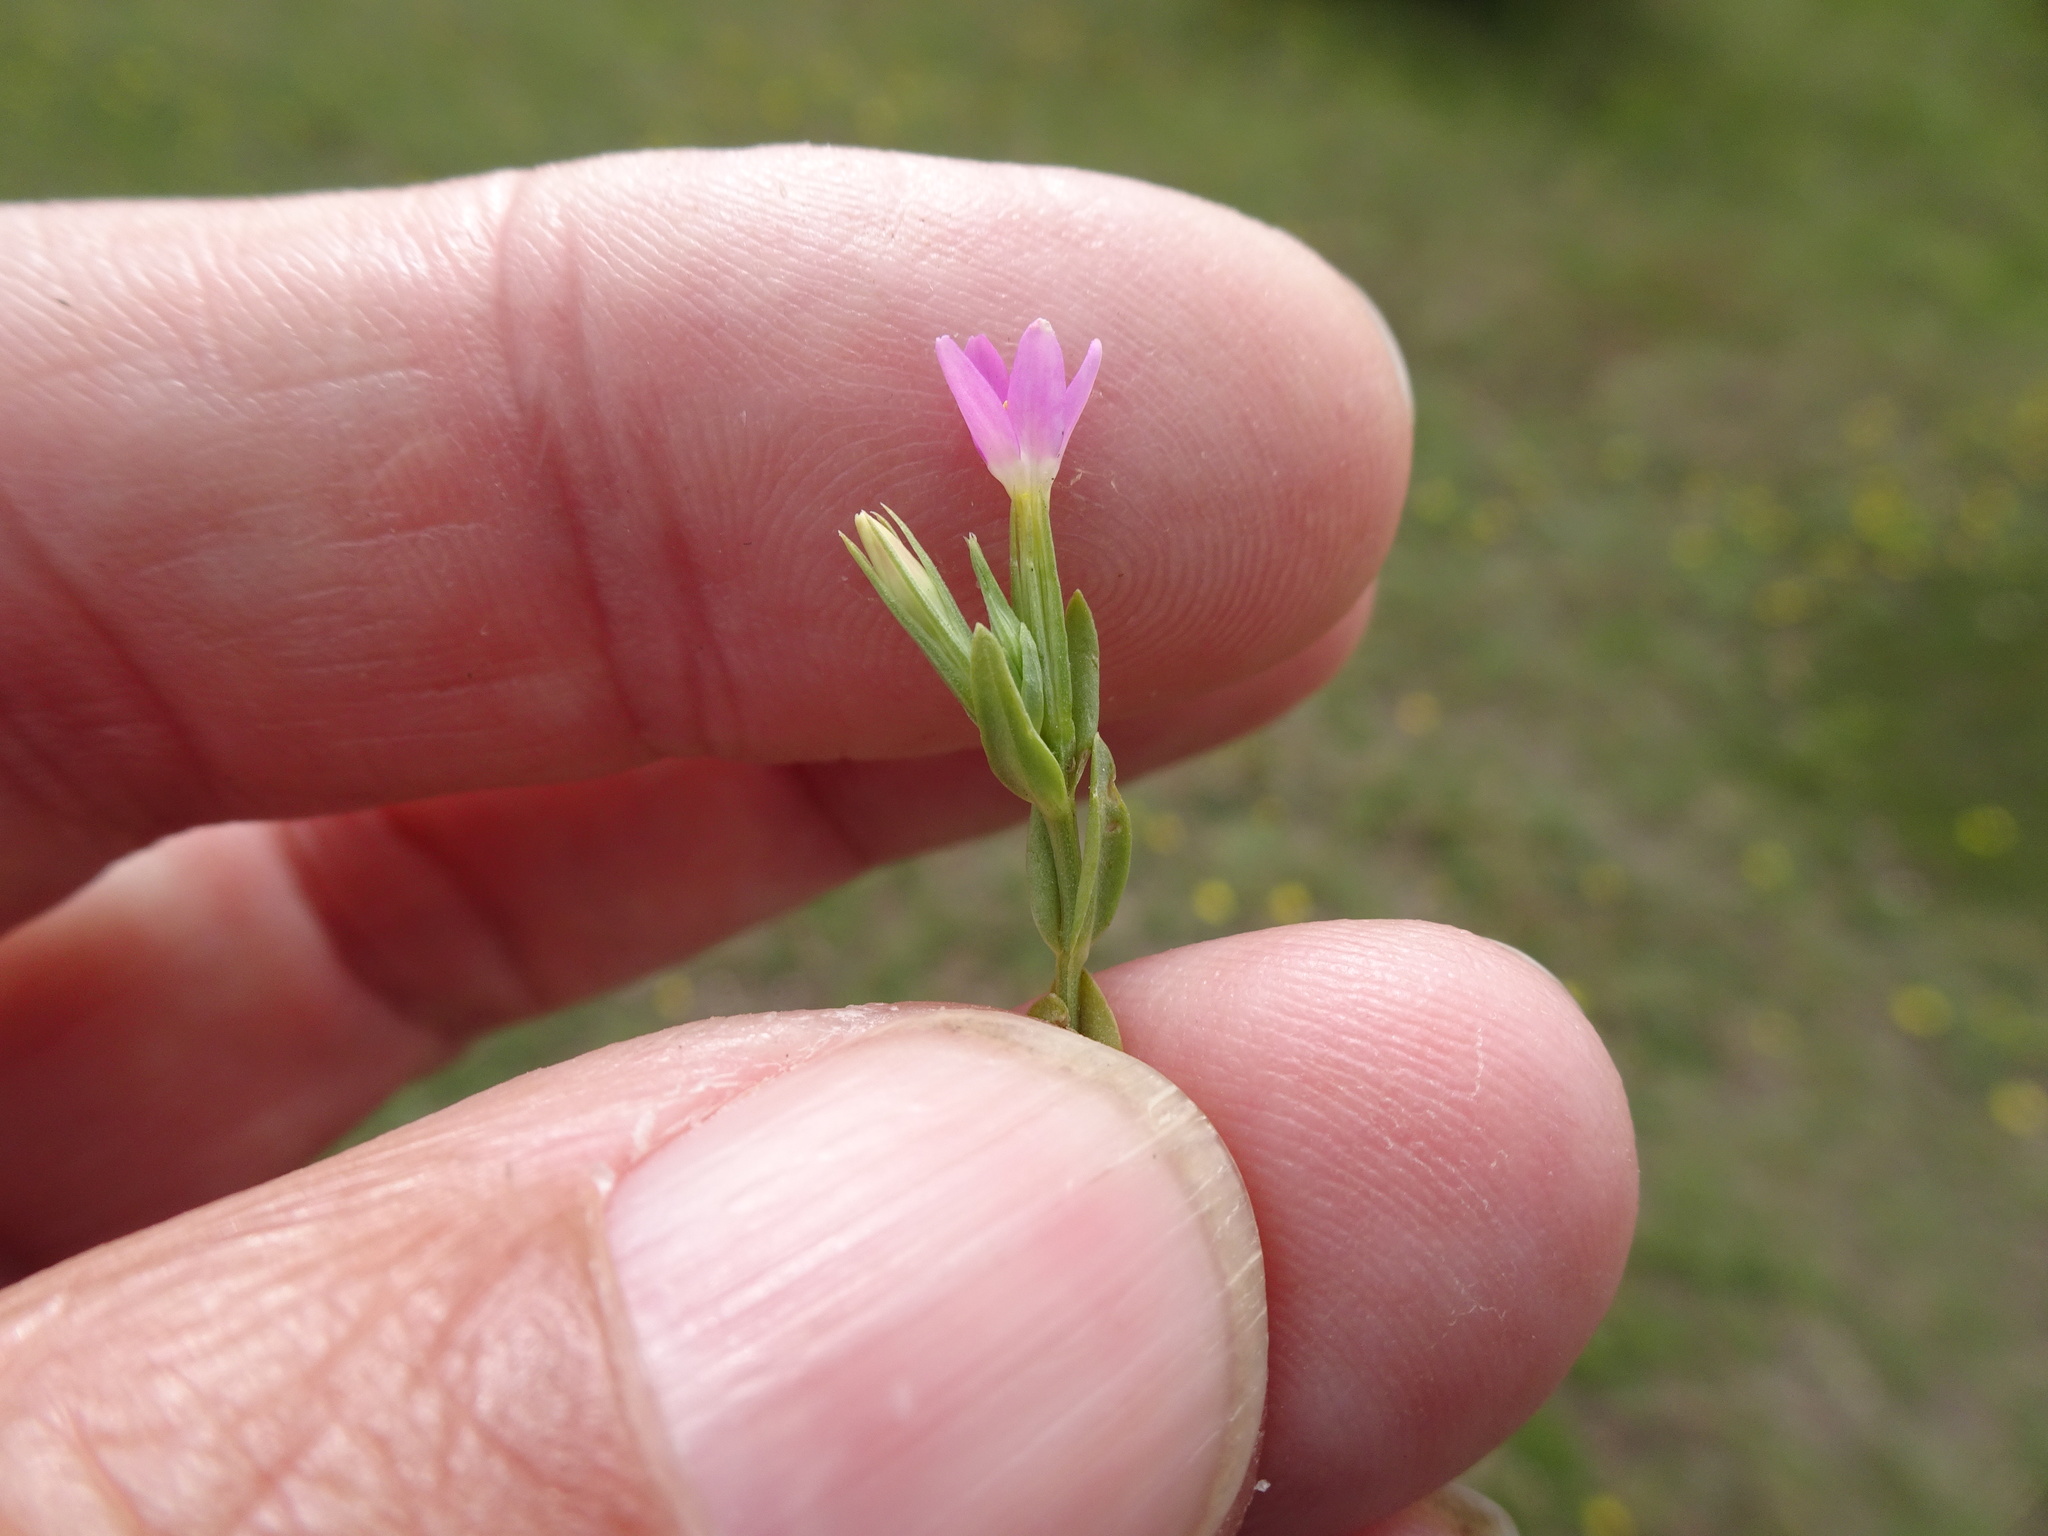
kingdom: Plantae
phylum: Tracheophyta
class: Magnoliopsida
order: Gentianales
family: Gentianaceae
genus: Centaurium
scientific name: Centaurium pulchellum
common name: Lesser centaury
